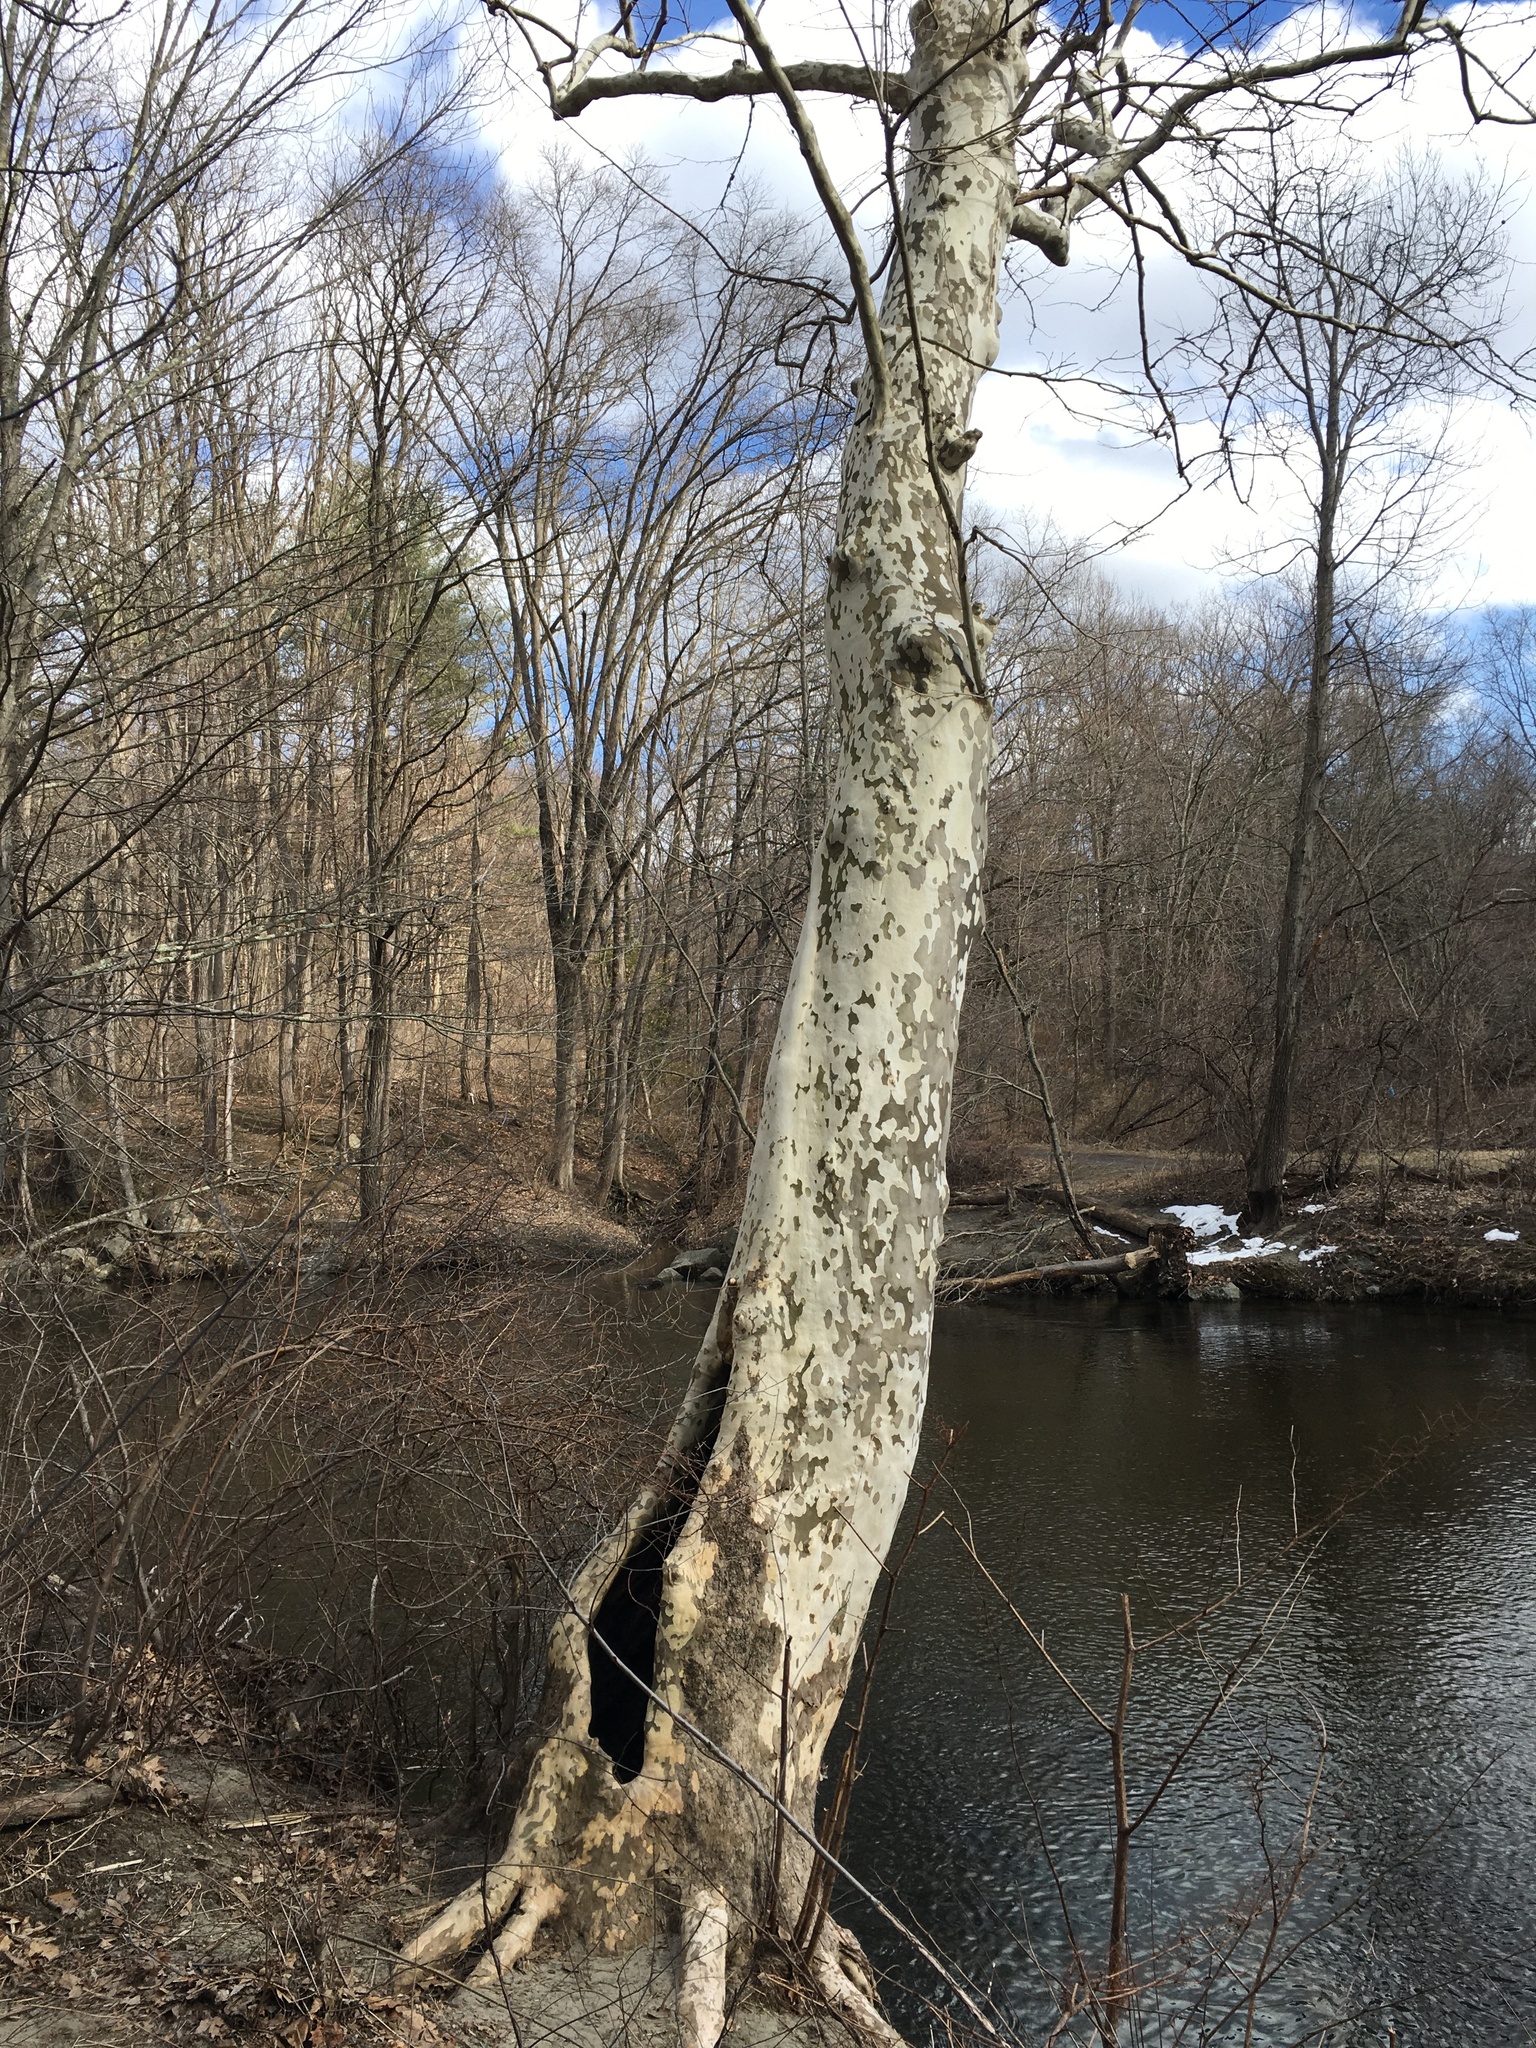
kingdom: Plantae
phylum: Tracheophyta
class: Magnoliopsida
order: Proteales
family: Platanaceae
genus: Platanus
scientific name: Platanus occidentalis
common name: American sycamore
